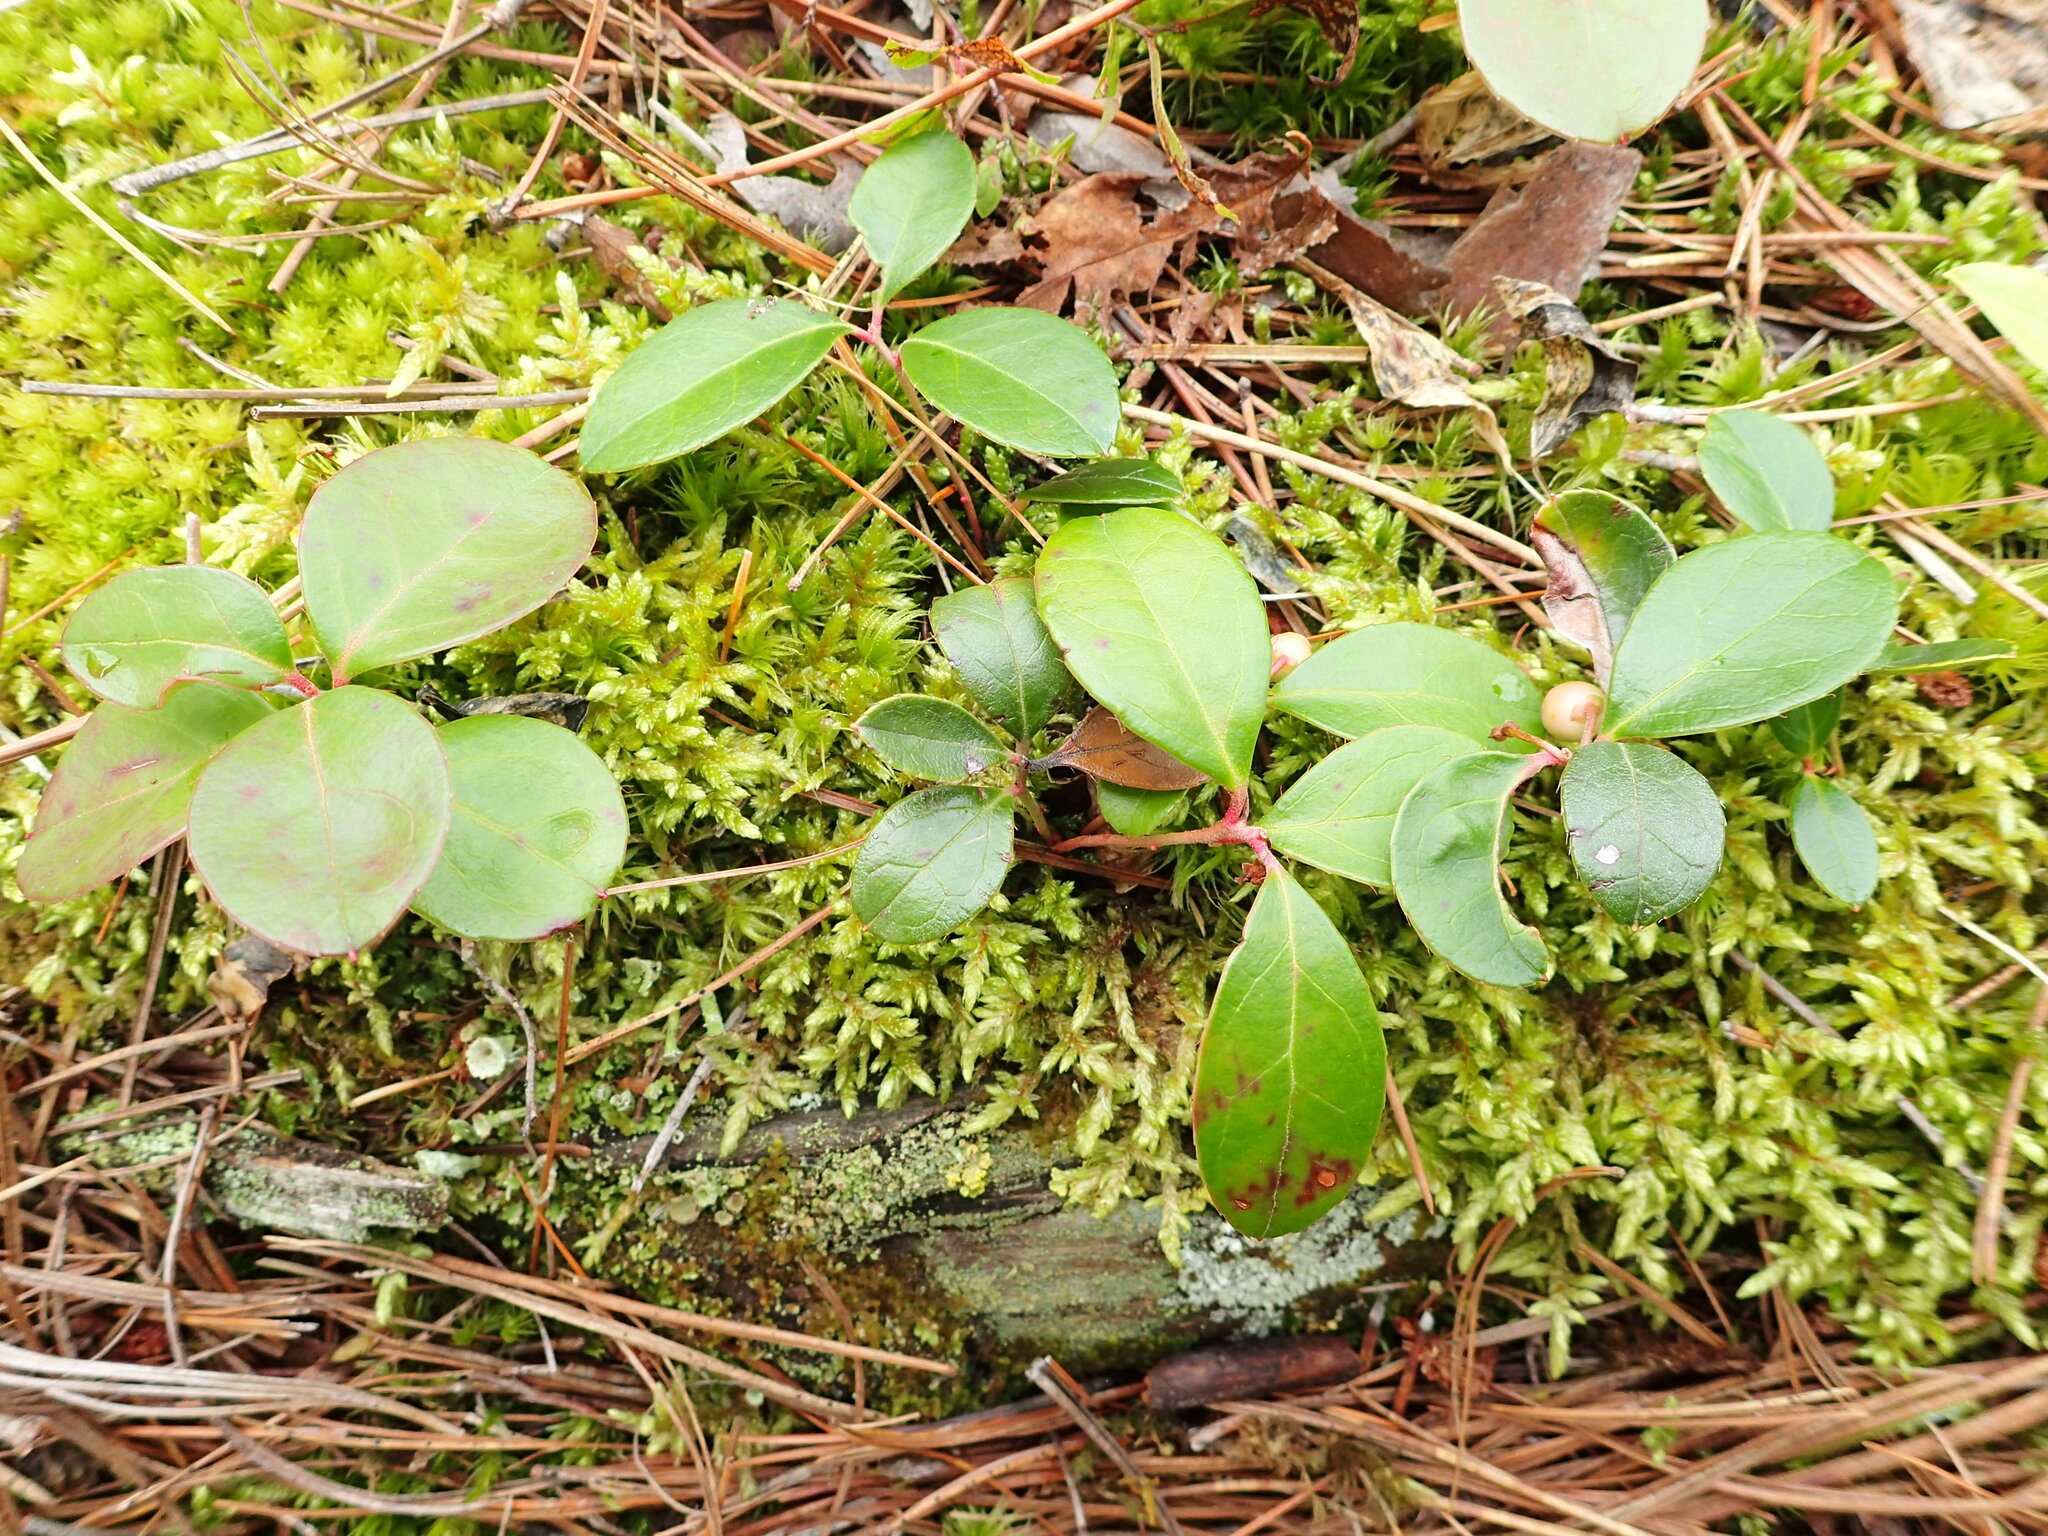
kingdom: Plantae
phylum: Tracheophyta
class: Magnoliopsida
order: Ericales
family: Ericaceae
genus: Gaultheria
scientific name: Gaultheria procumbens
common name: Checkerberry
